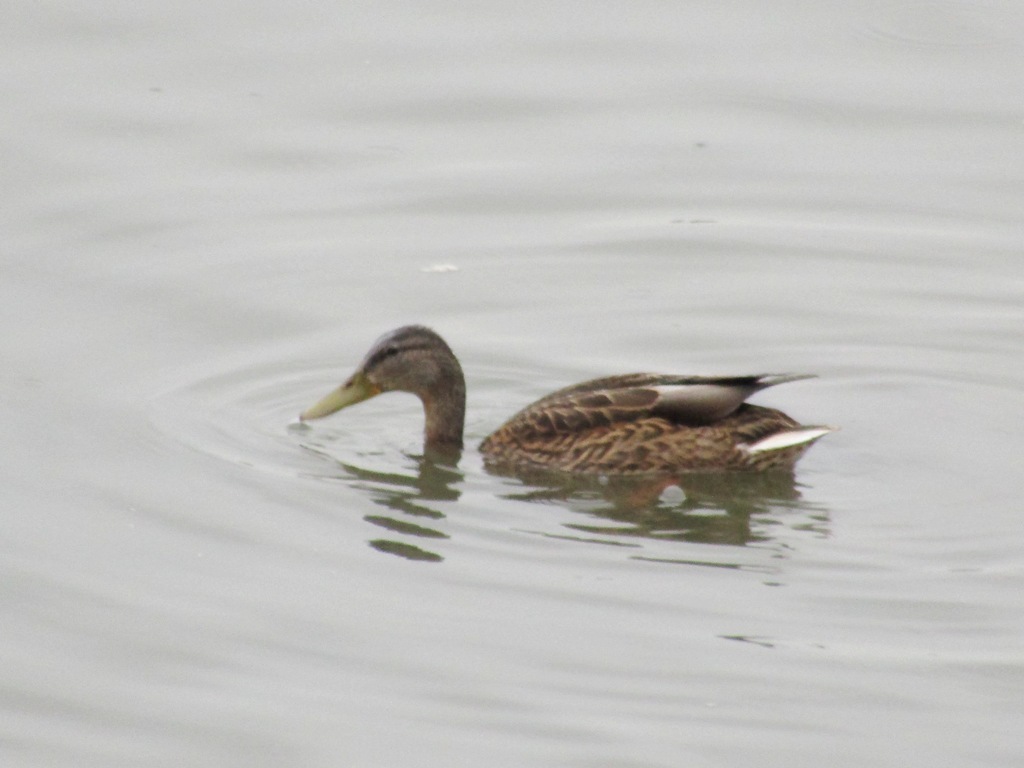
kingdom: Animalia
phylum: Chordata
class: Aves
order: Anseriformes
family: Anatidae
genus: Anas
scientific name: Anas platyrhynchos
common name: Mallard
